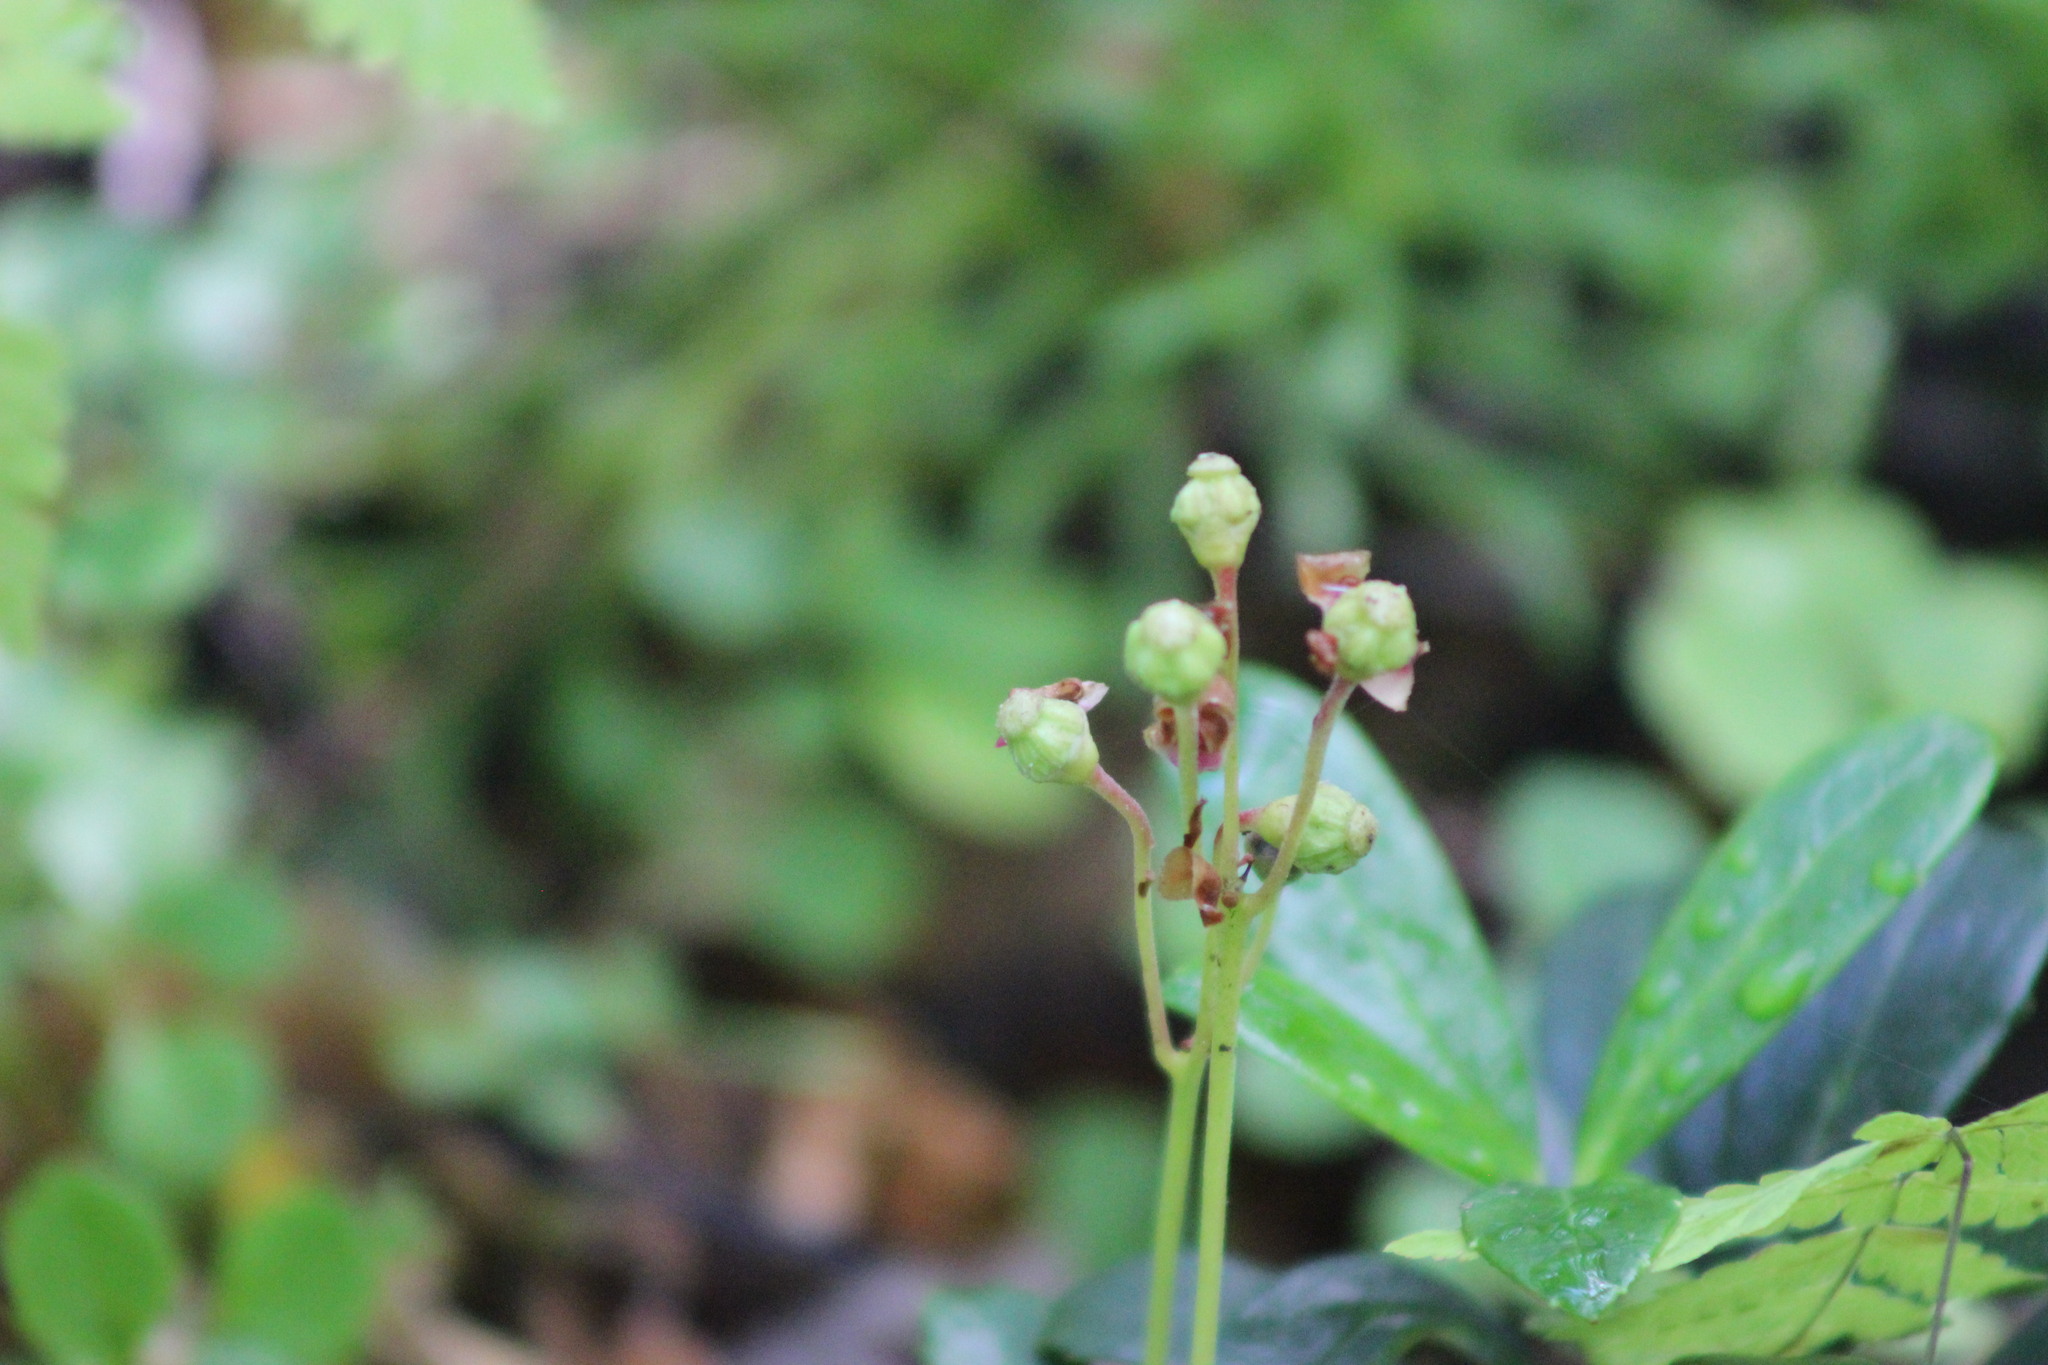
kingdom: Plantae
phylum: Tracheophyta
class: Magnoliopsida
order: Ericales
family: Ericaceae
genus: Chimaphila
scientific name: Chimaphila umbellata
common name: Pipsissewa
